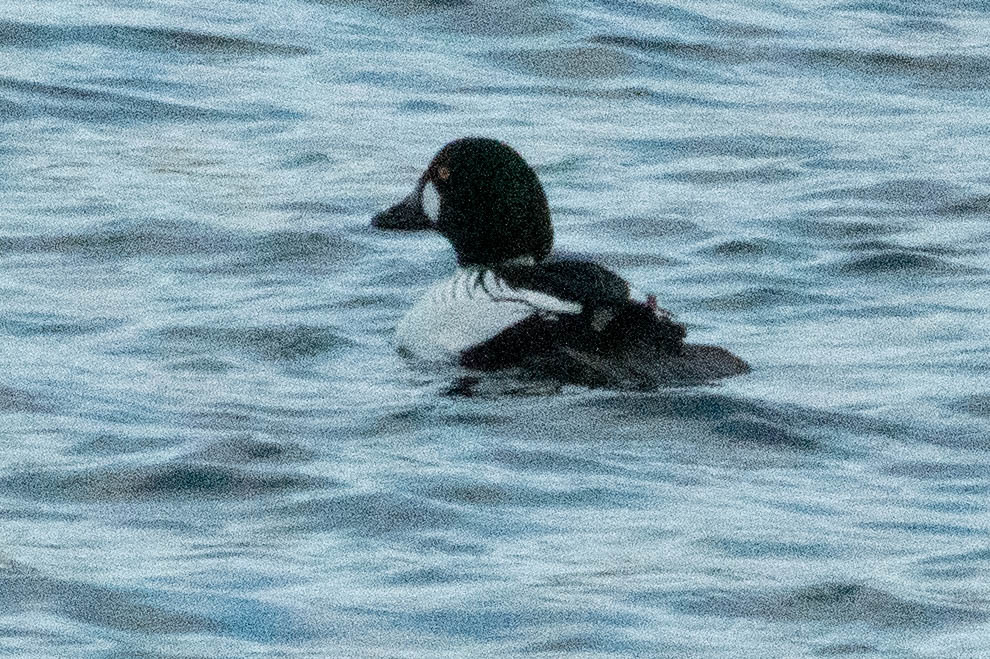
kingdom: Animalia
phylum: Chordata
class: Aves
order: Anseriformes
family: Anatidae
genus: Bucephala
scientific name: Bucephala clangula
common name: Common goldeneye
